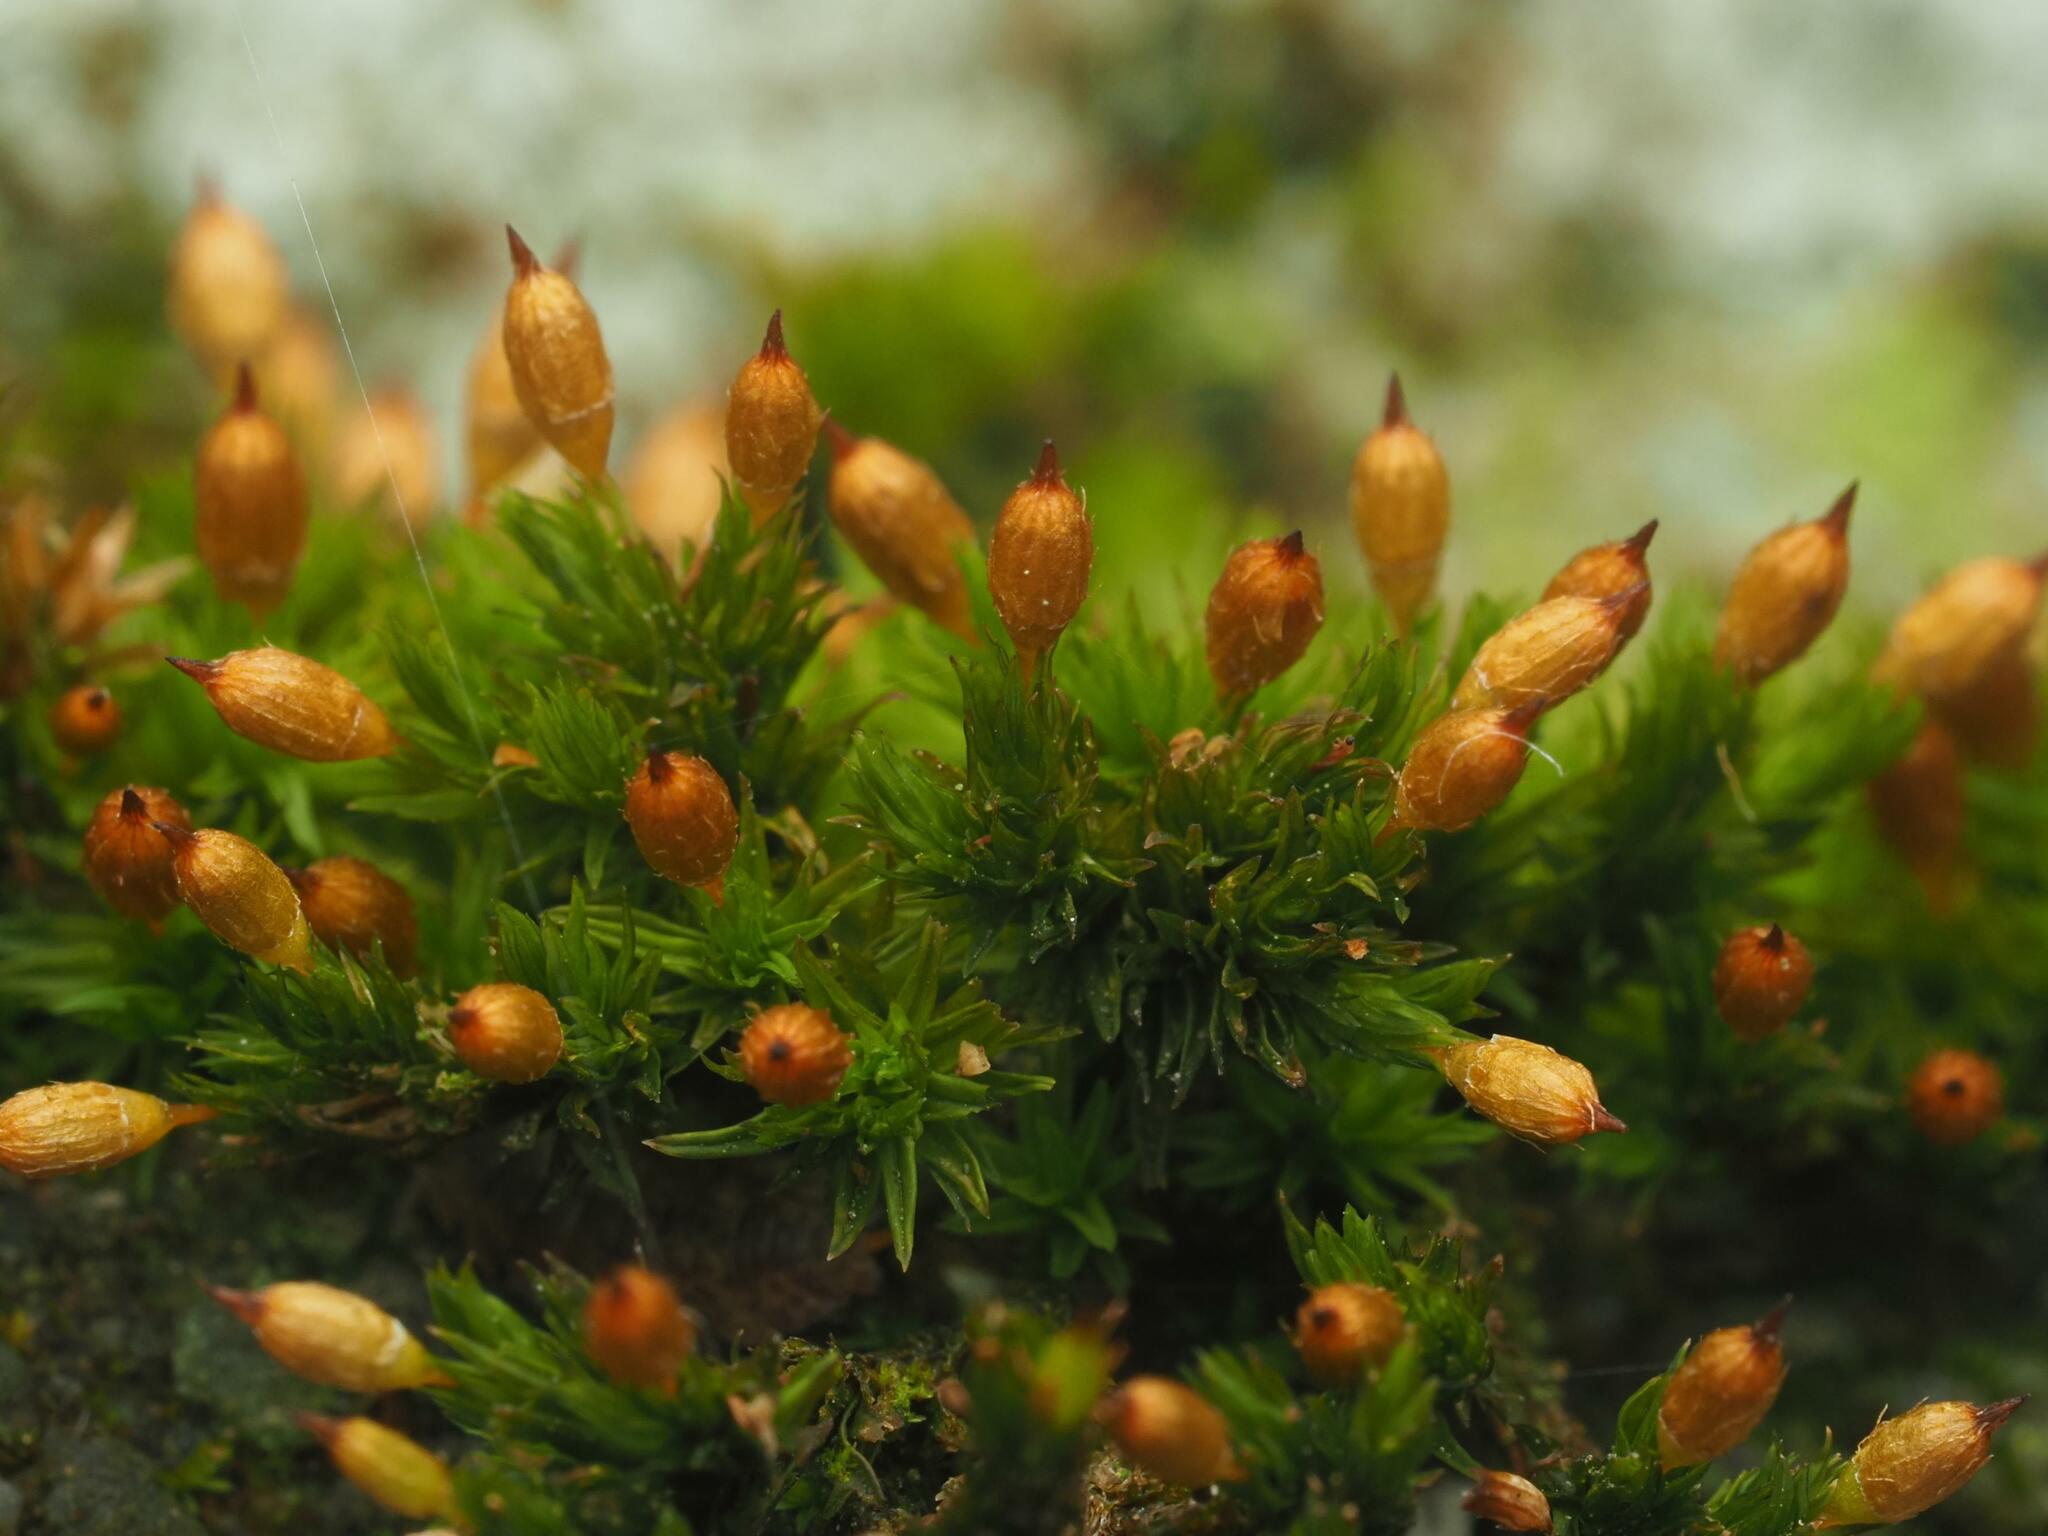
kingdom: Plantae
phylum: Bryophyta
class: Bryopsida
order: Orthotrichales
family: Orthotrichaceae
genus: Orthotrichum
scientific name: Orthotrichum anomalum
